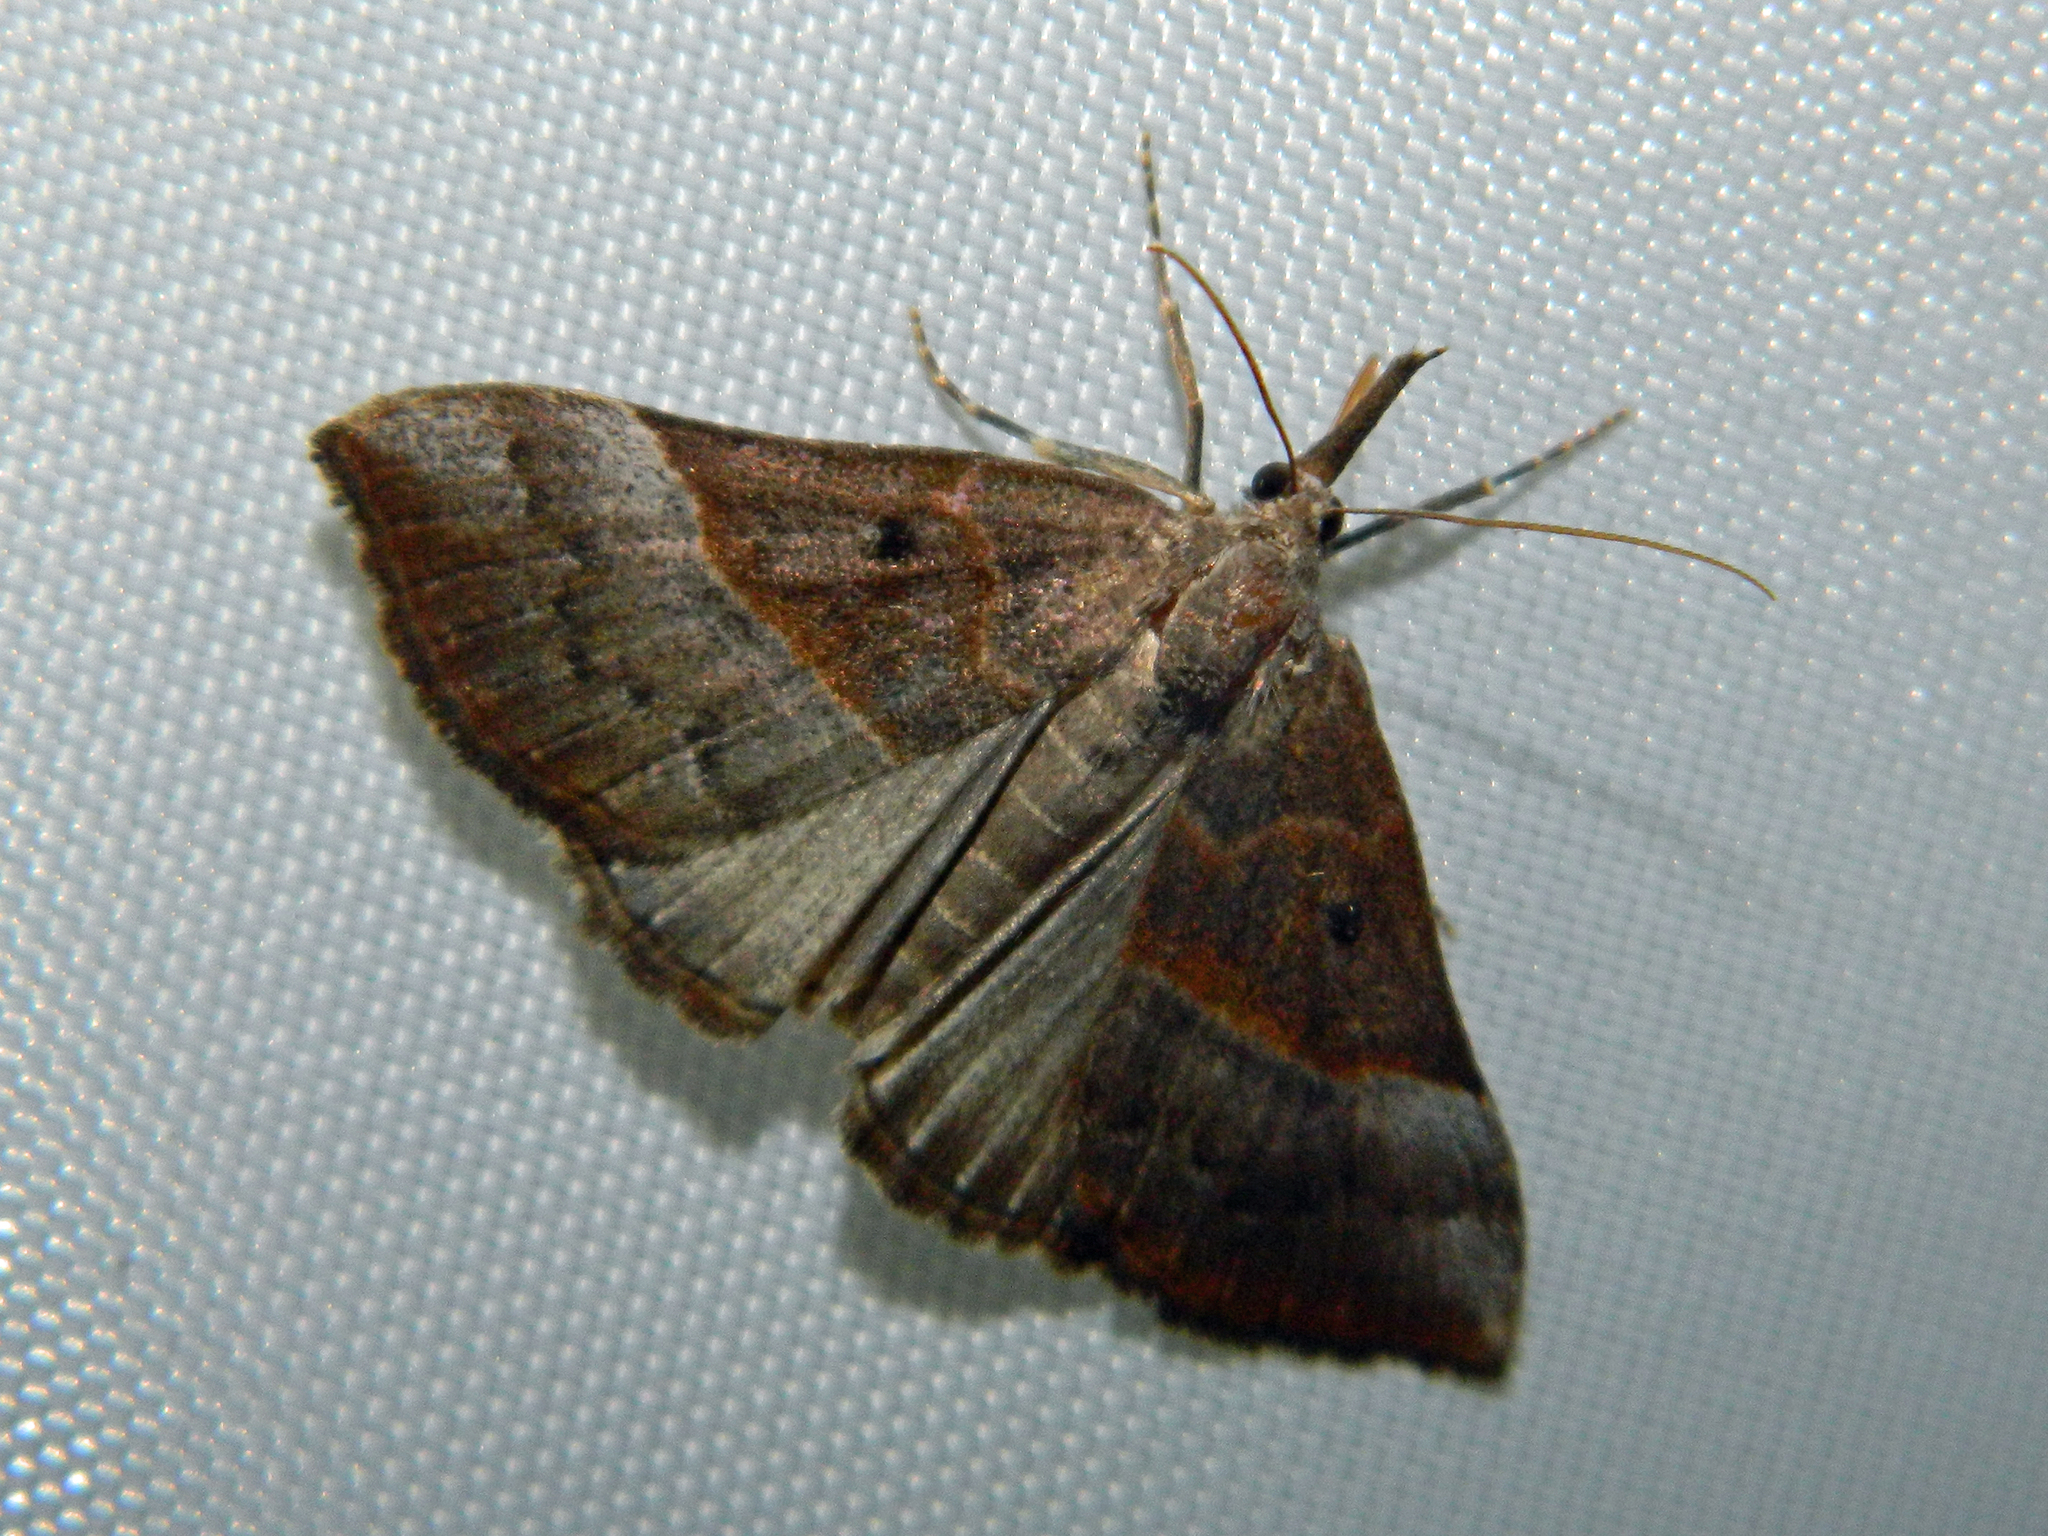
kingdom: Animalia
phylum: Arthropoda
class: Insecta
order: Lepidoptera
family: Erebidae
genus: Hypena
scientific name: Hypena eductalis
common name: Red-footed snout
